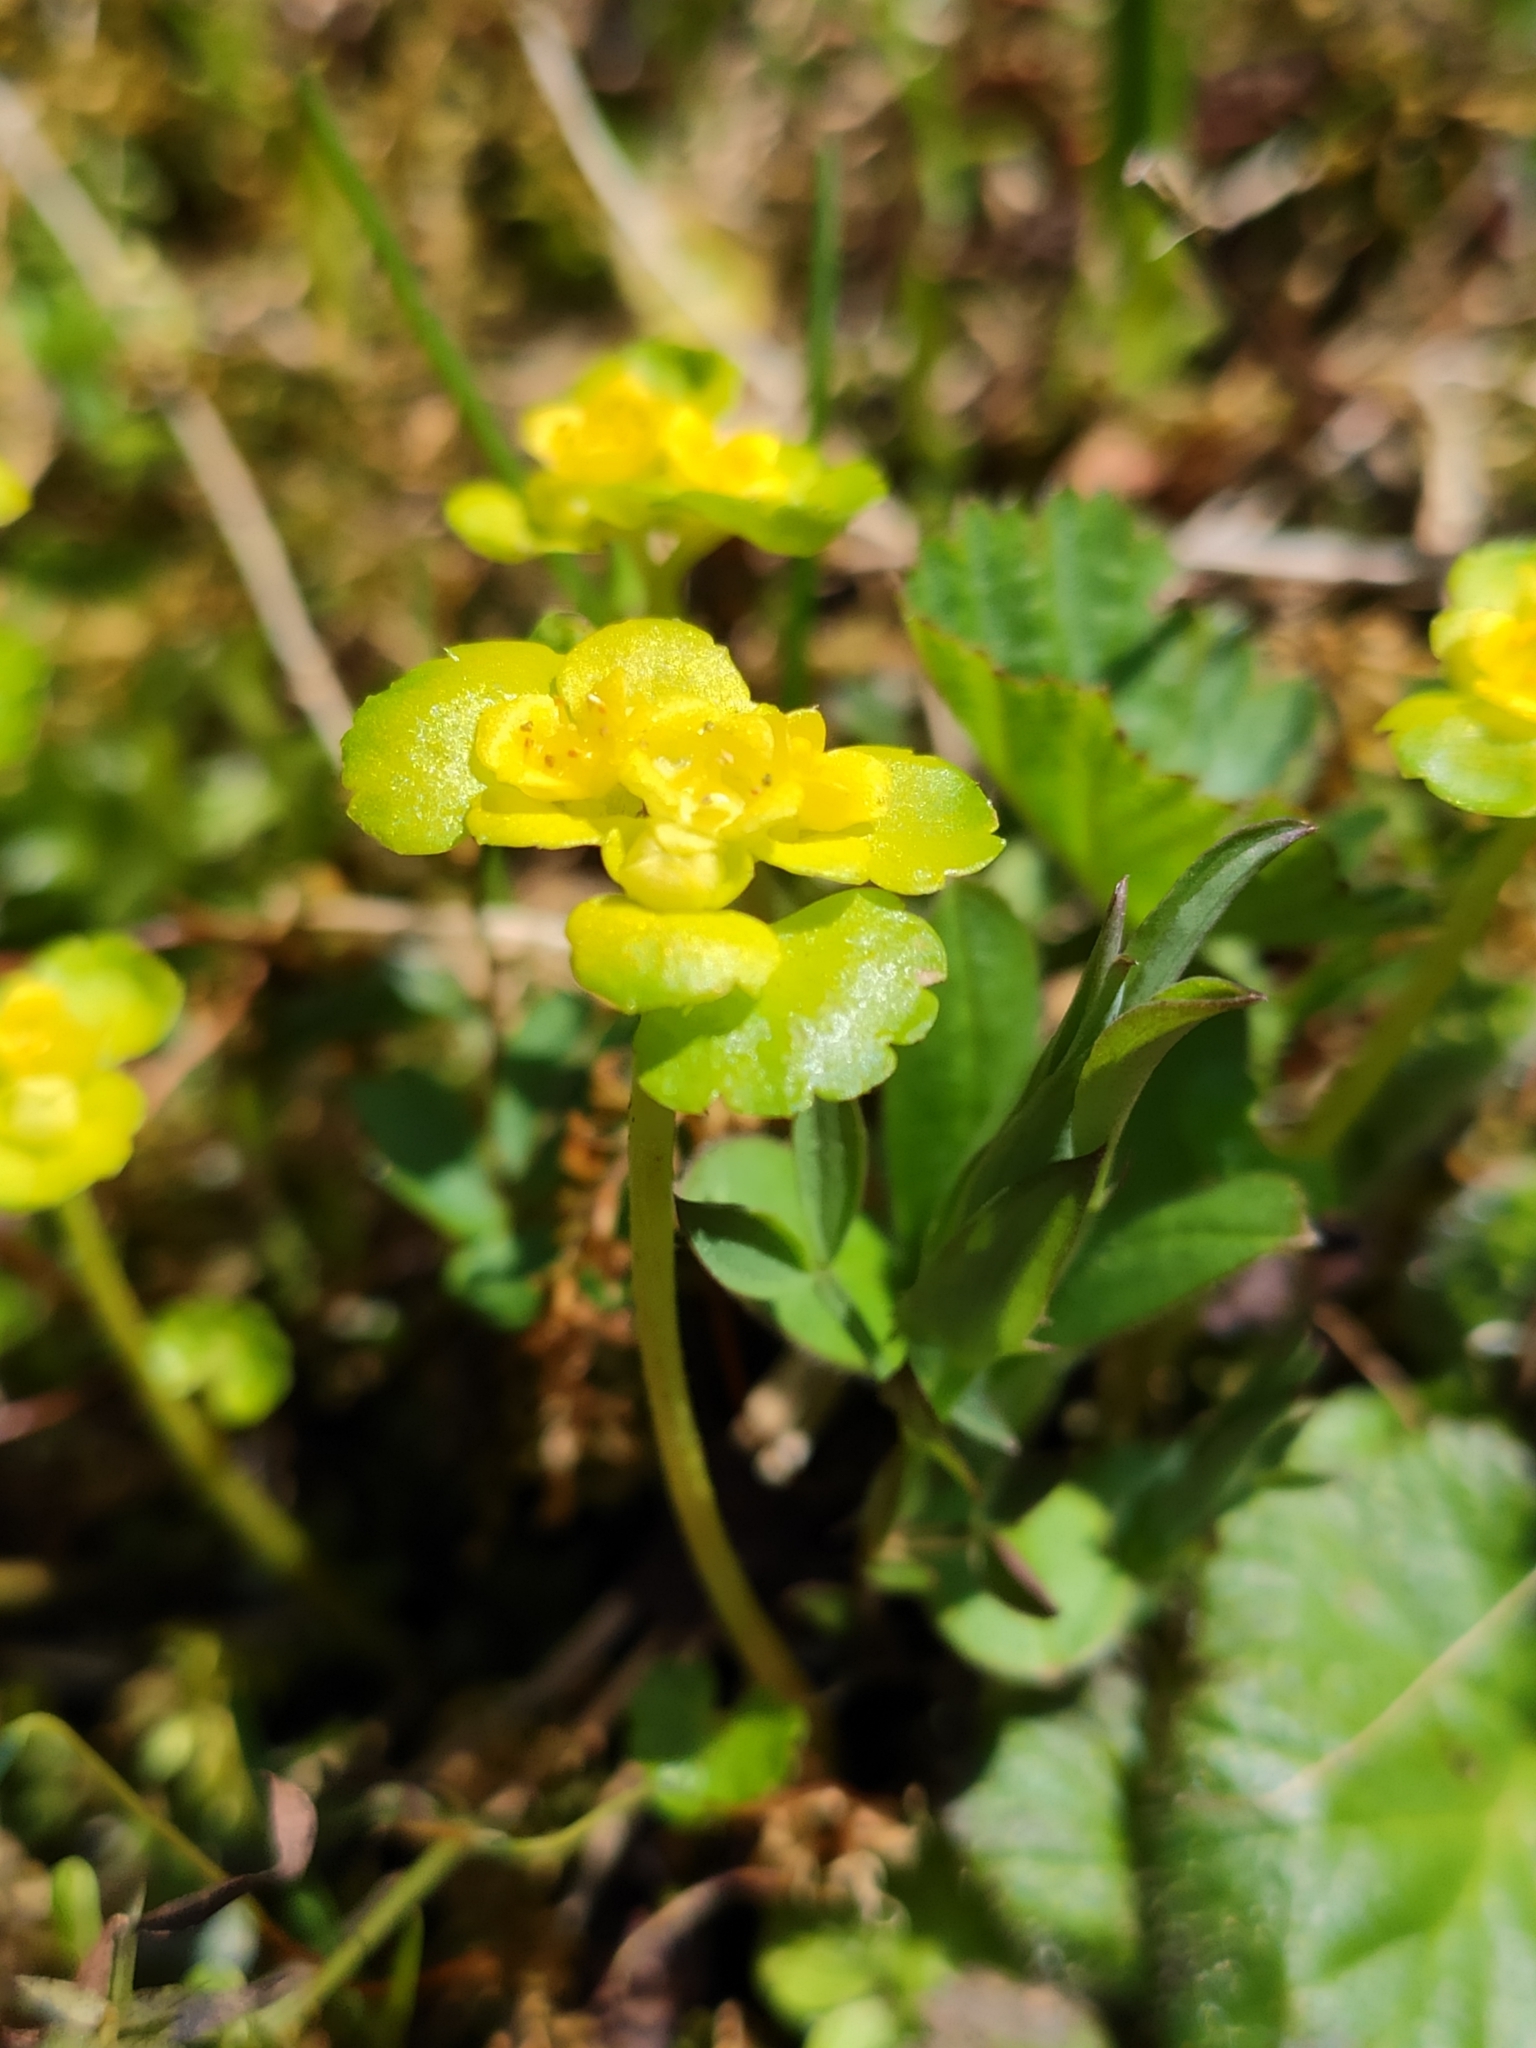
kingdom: Plantae
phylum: Tracheophyta
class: Magnoliopsida
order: Saxifragales
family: Saxifragaceae
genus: Chrysosplenium
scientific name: Chrysosplenium alternifolium
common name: Alternate-leaved golden-saxifrage
